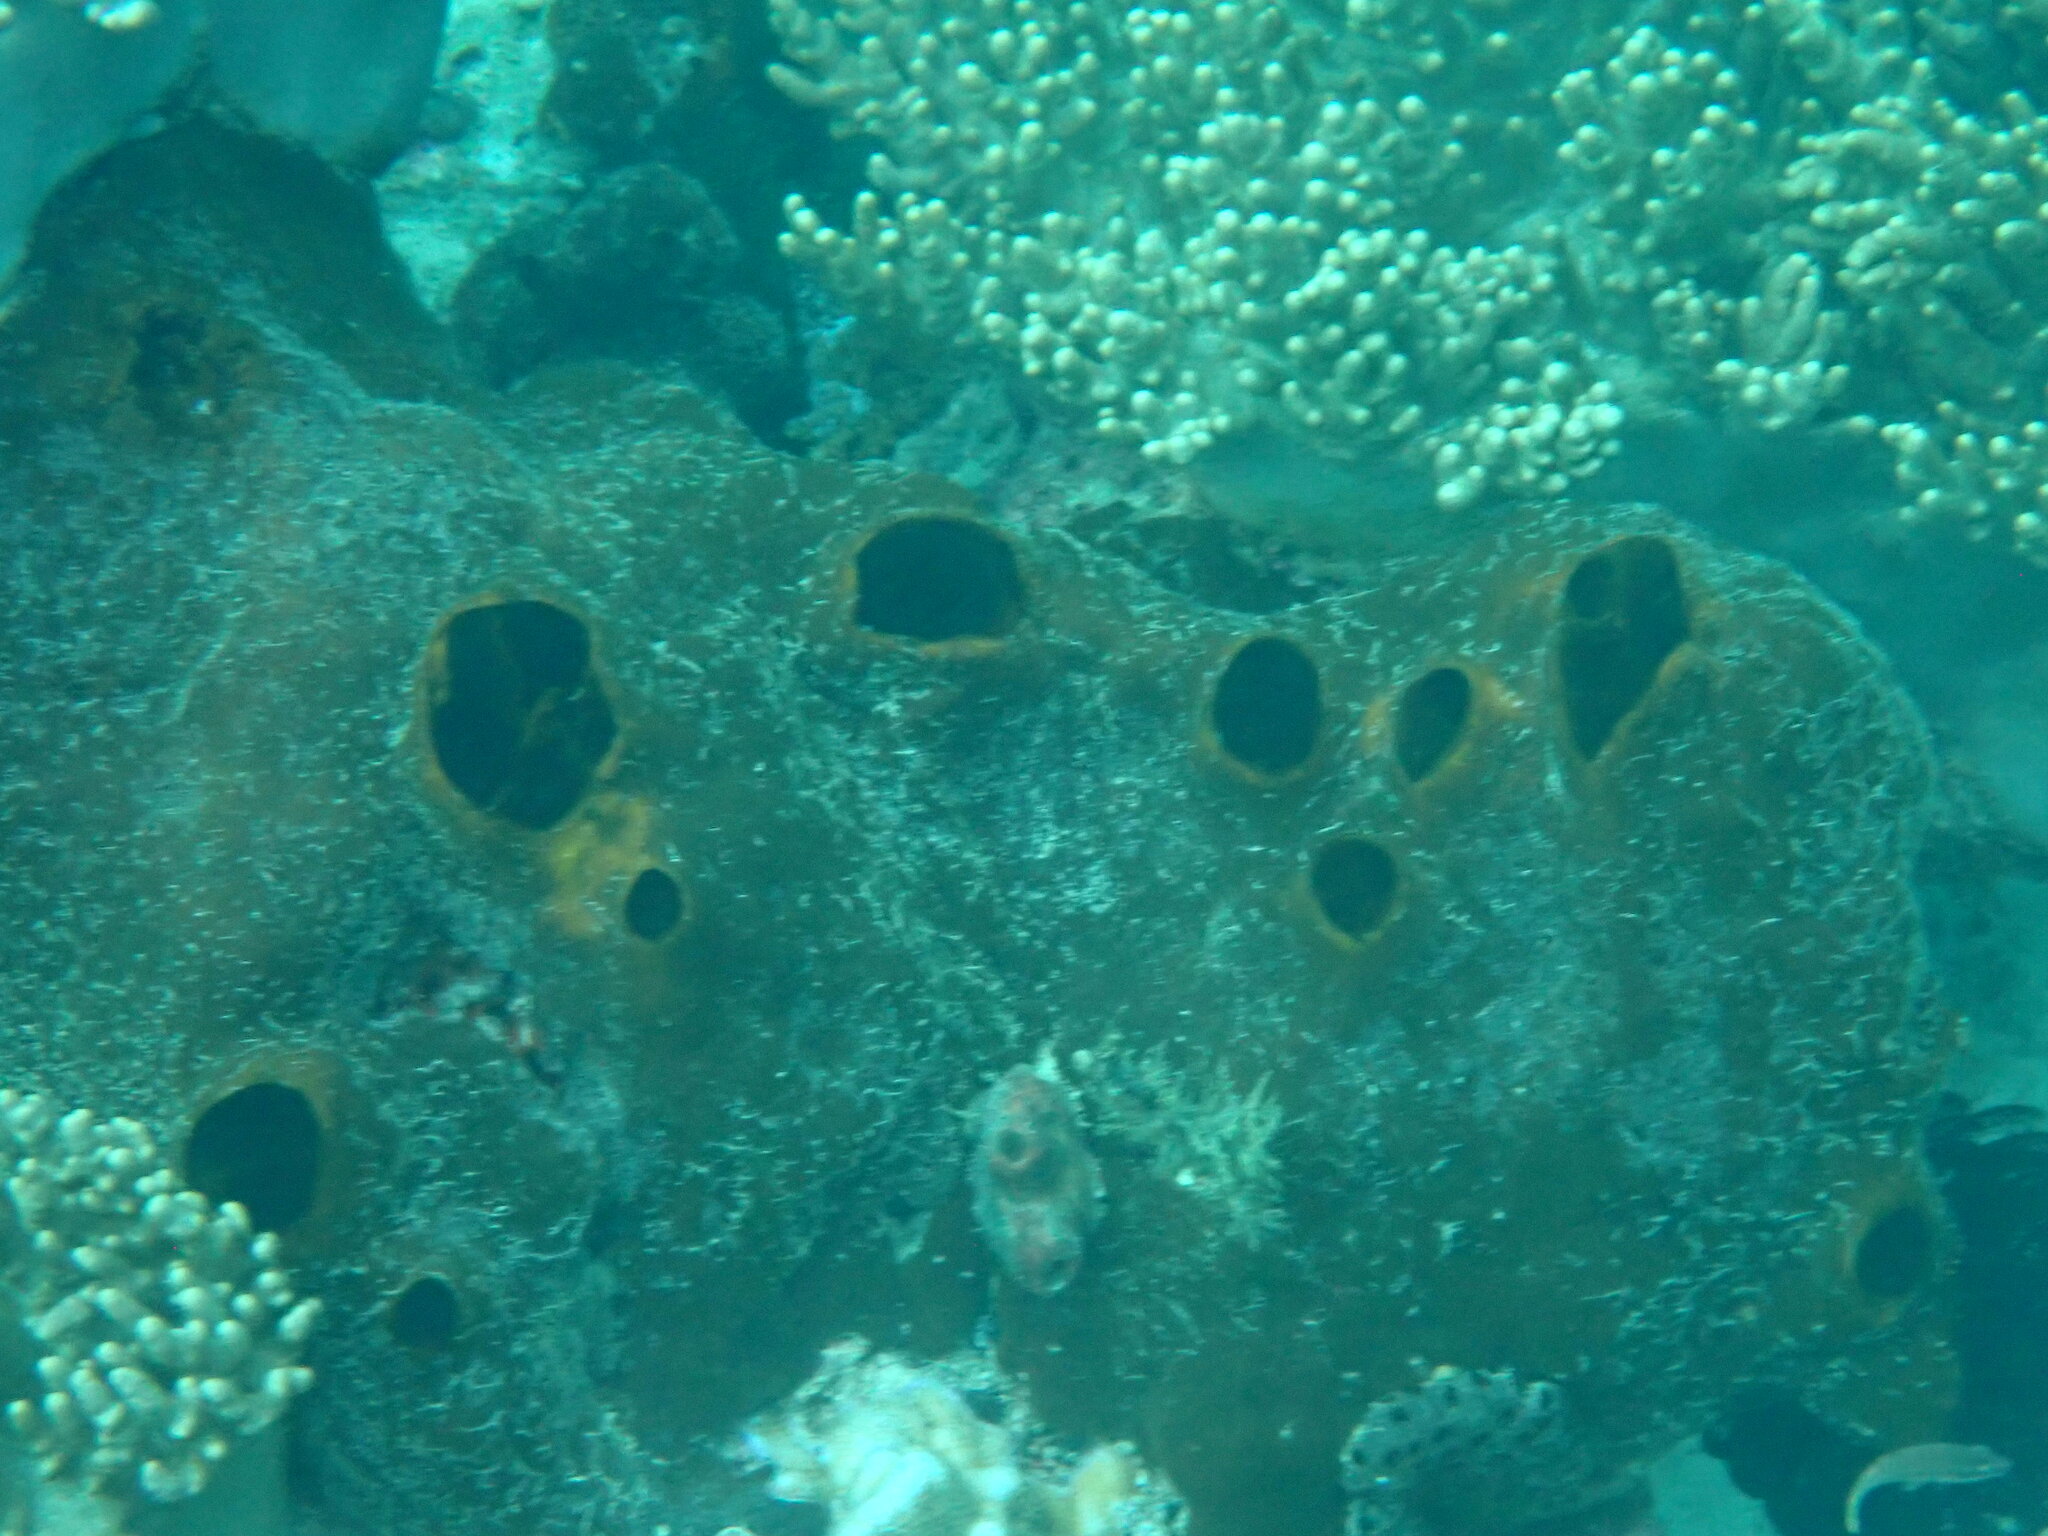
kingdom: Animalia
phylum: Porifera
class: Demospongiae
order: Clionaida
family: Clionaidae
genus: Spheciospongia
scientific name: Spheciospongia vagabunda
